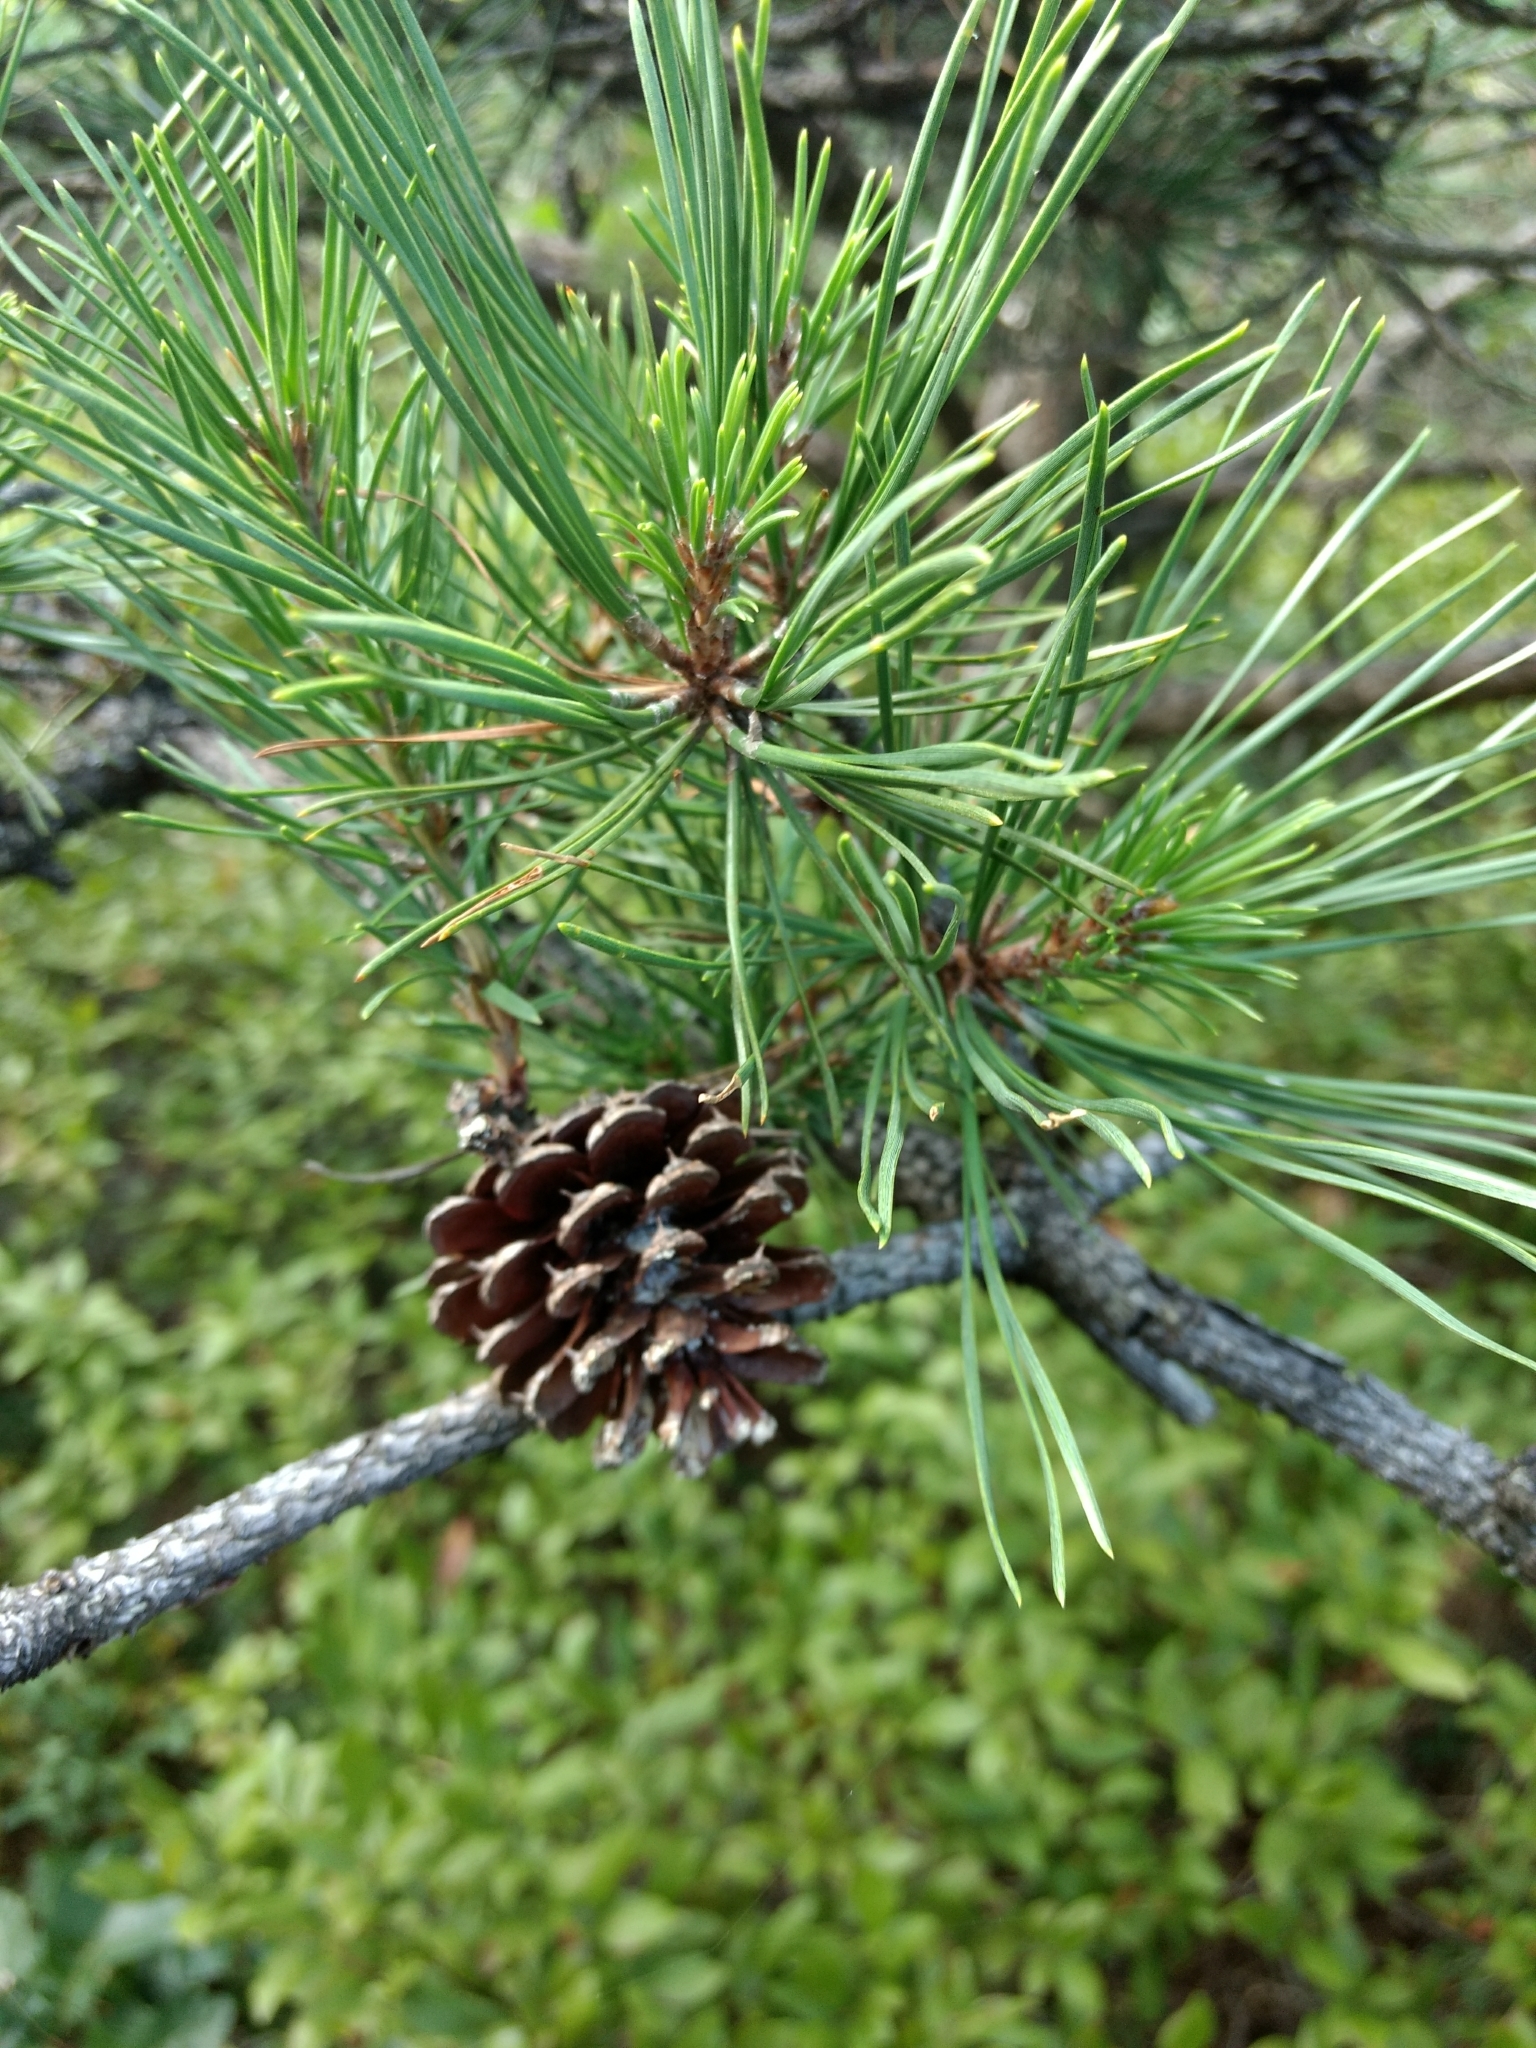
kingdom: Plantae
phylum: Tracheophyta
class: Pinopsida
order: Pinales
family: Pinaceae
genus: Pinus
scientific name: Pinus rigida
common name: Pitch pine
